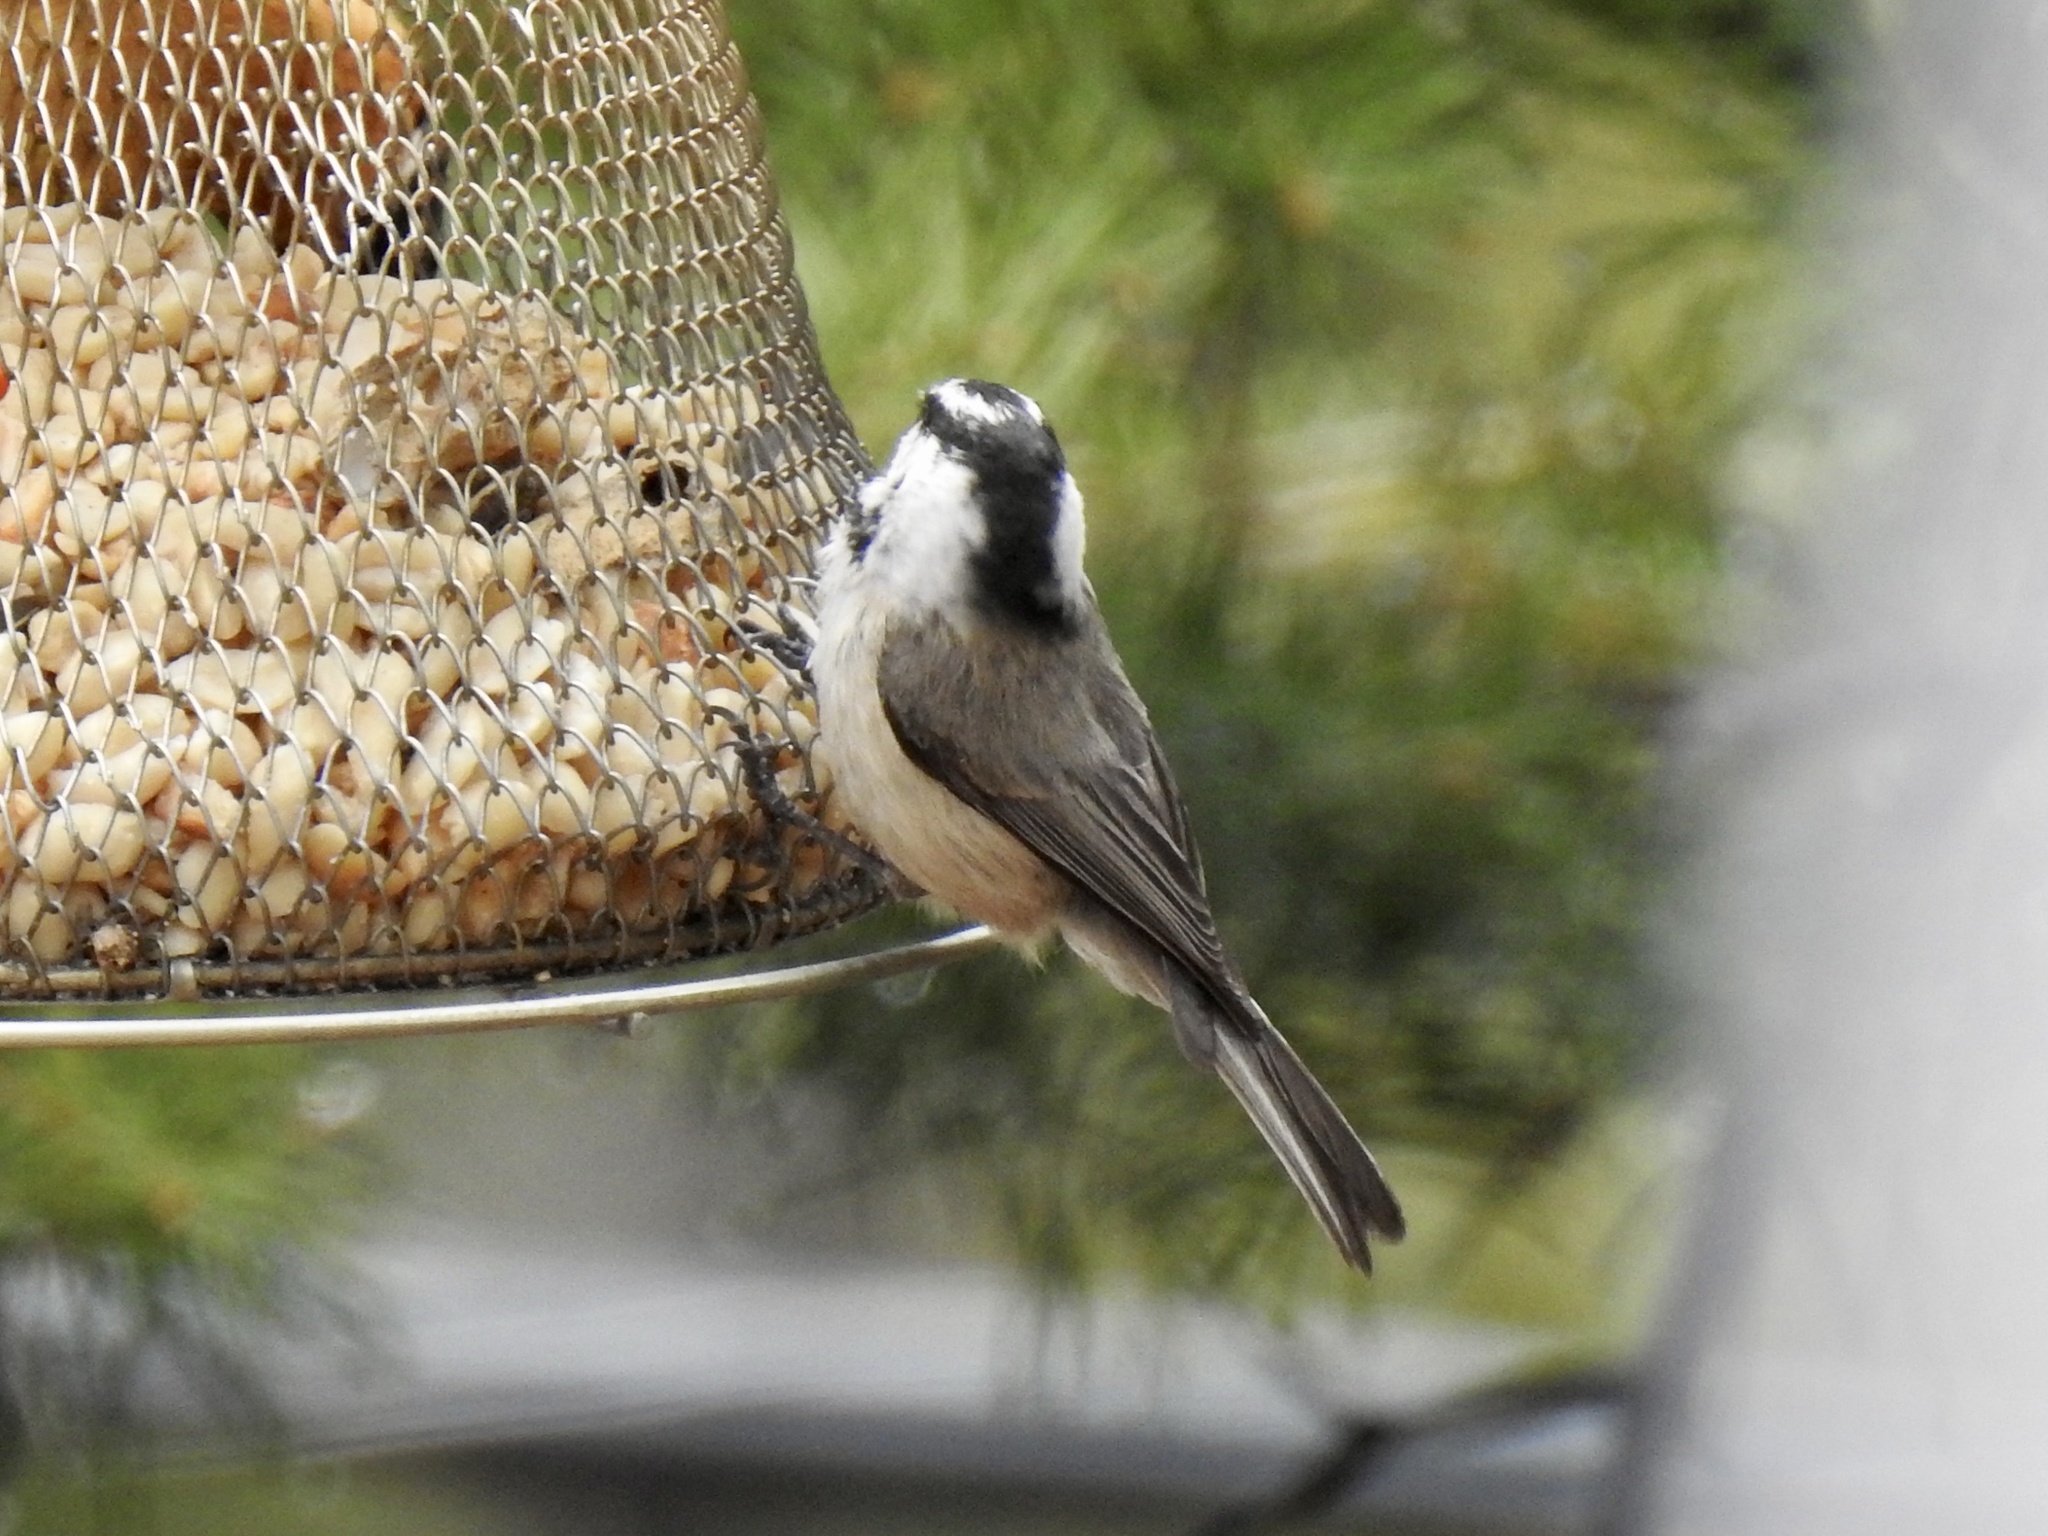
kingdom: Animalia
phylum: Chordata
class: Aves
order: Passeriformes
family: Paridae
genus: Poecile
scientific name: Poecile gambeli
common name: Mountain chickadee
